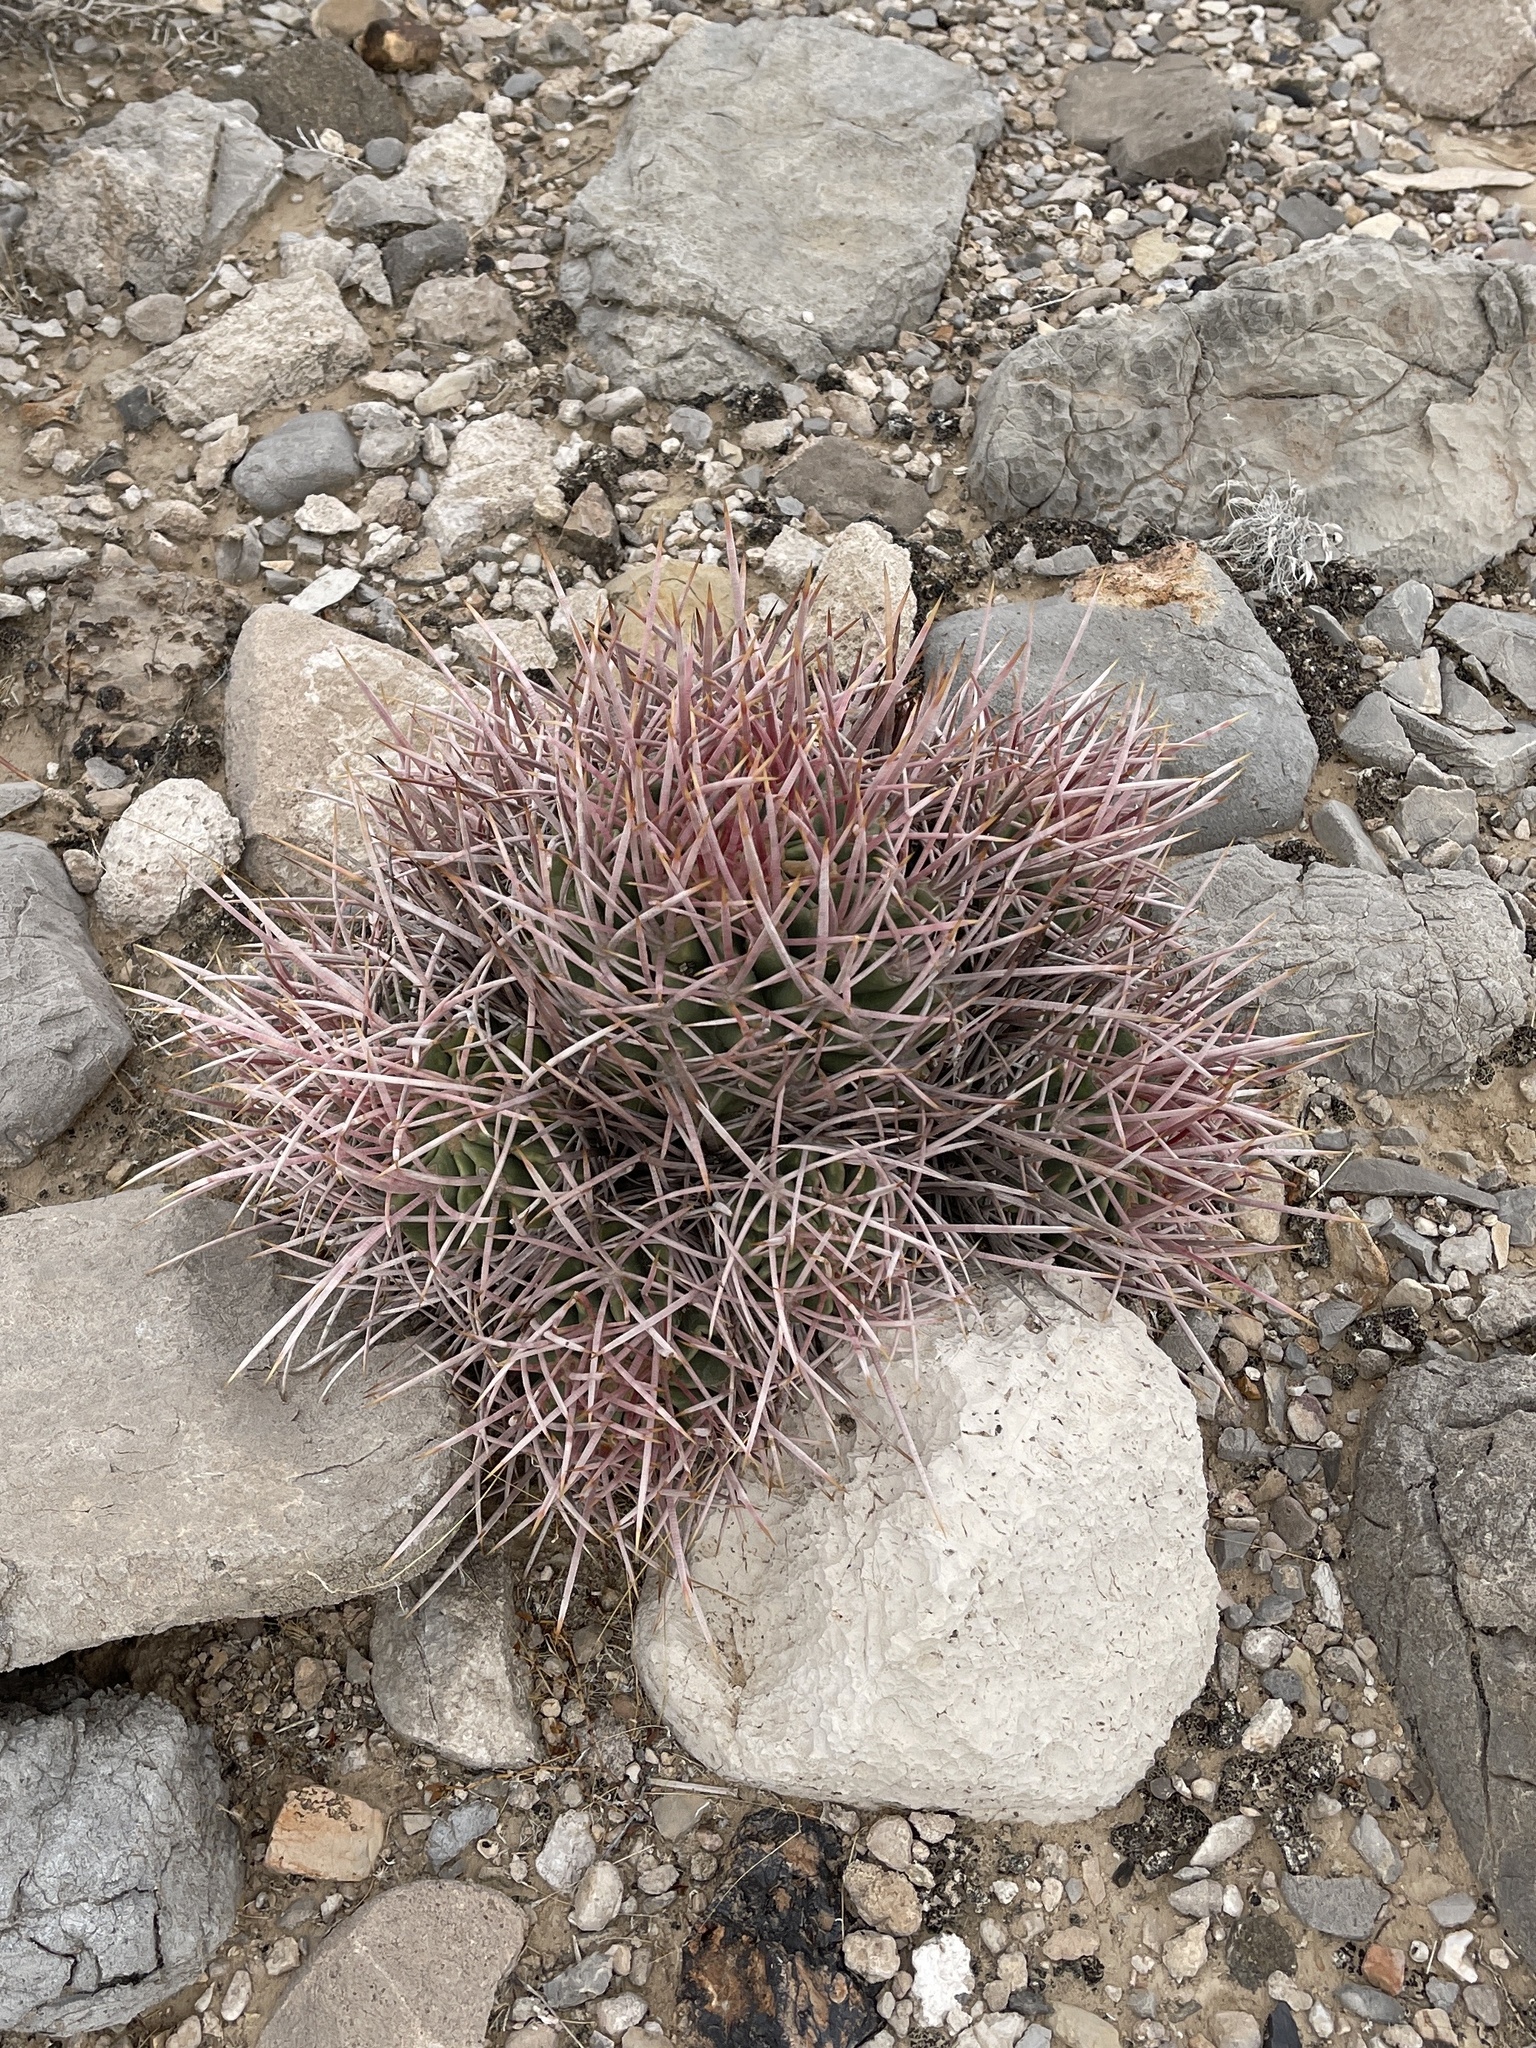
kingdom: Plantae
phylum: Tracheophyta
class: Magnoliopsida
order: Caryophyllales
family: Cactaceae
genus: Echinocactus
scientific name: Echinocactus polycephalus
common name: Cottontop cactus
